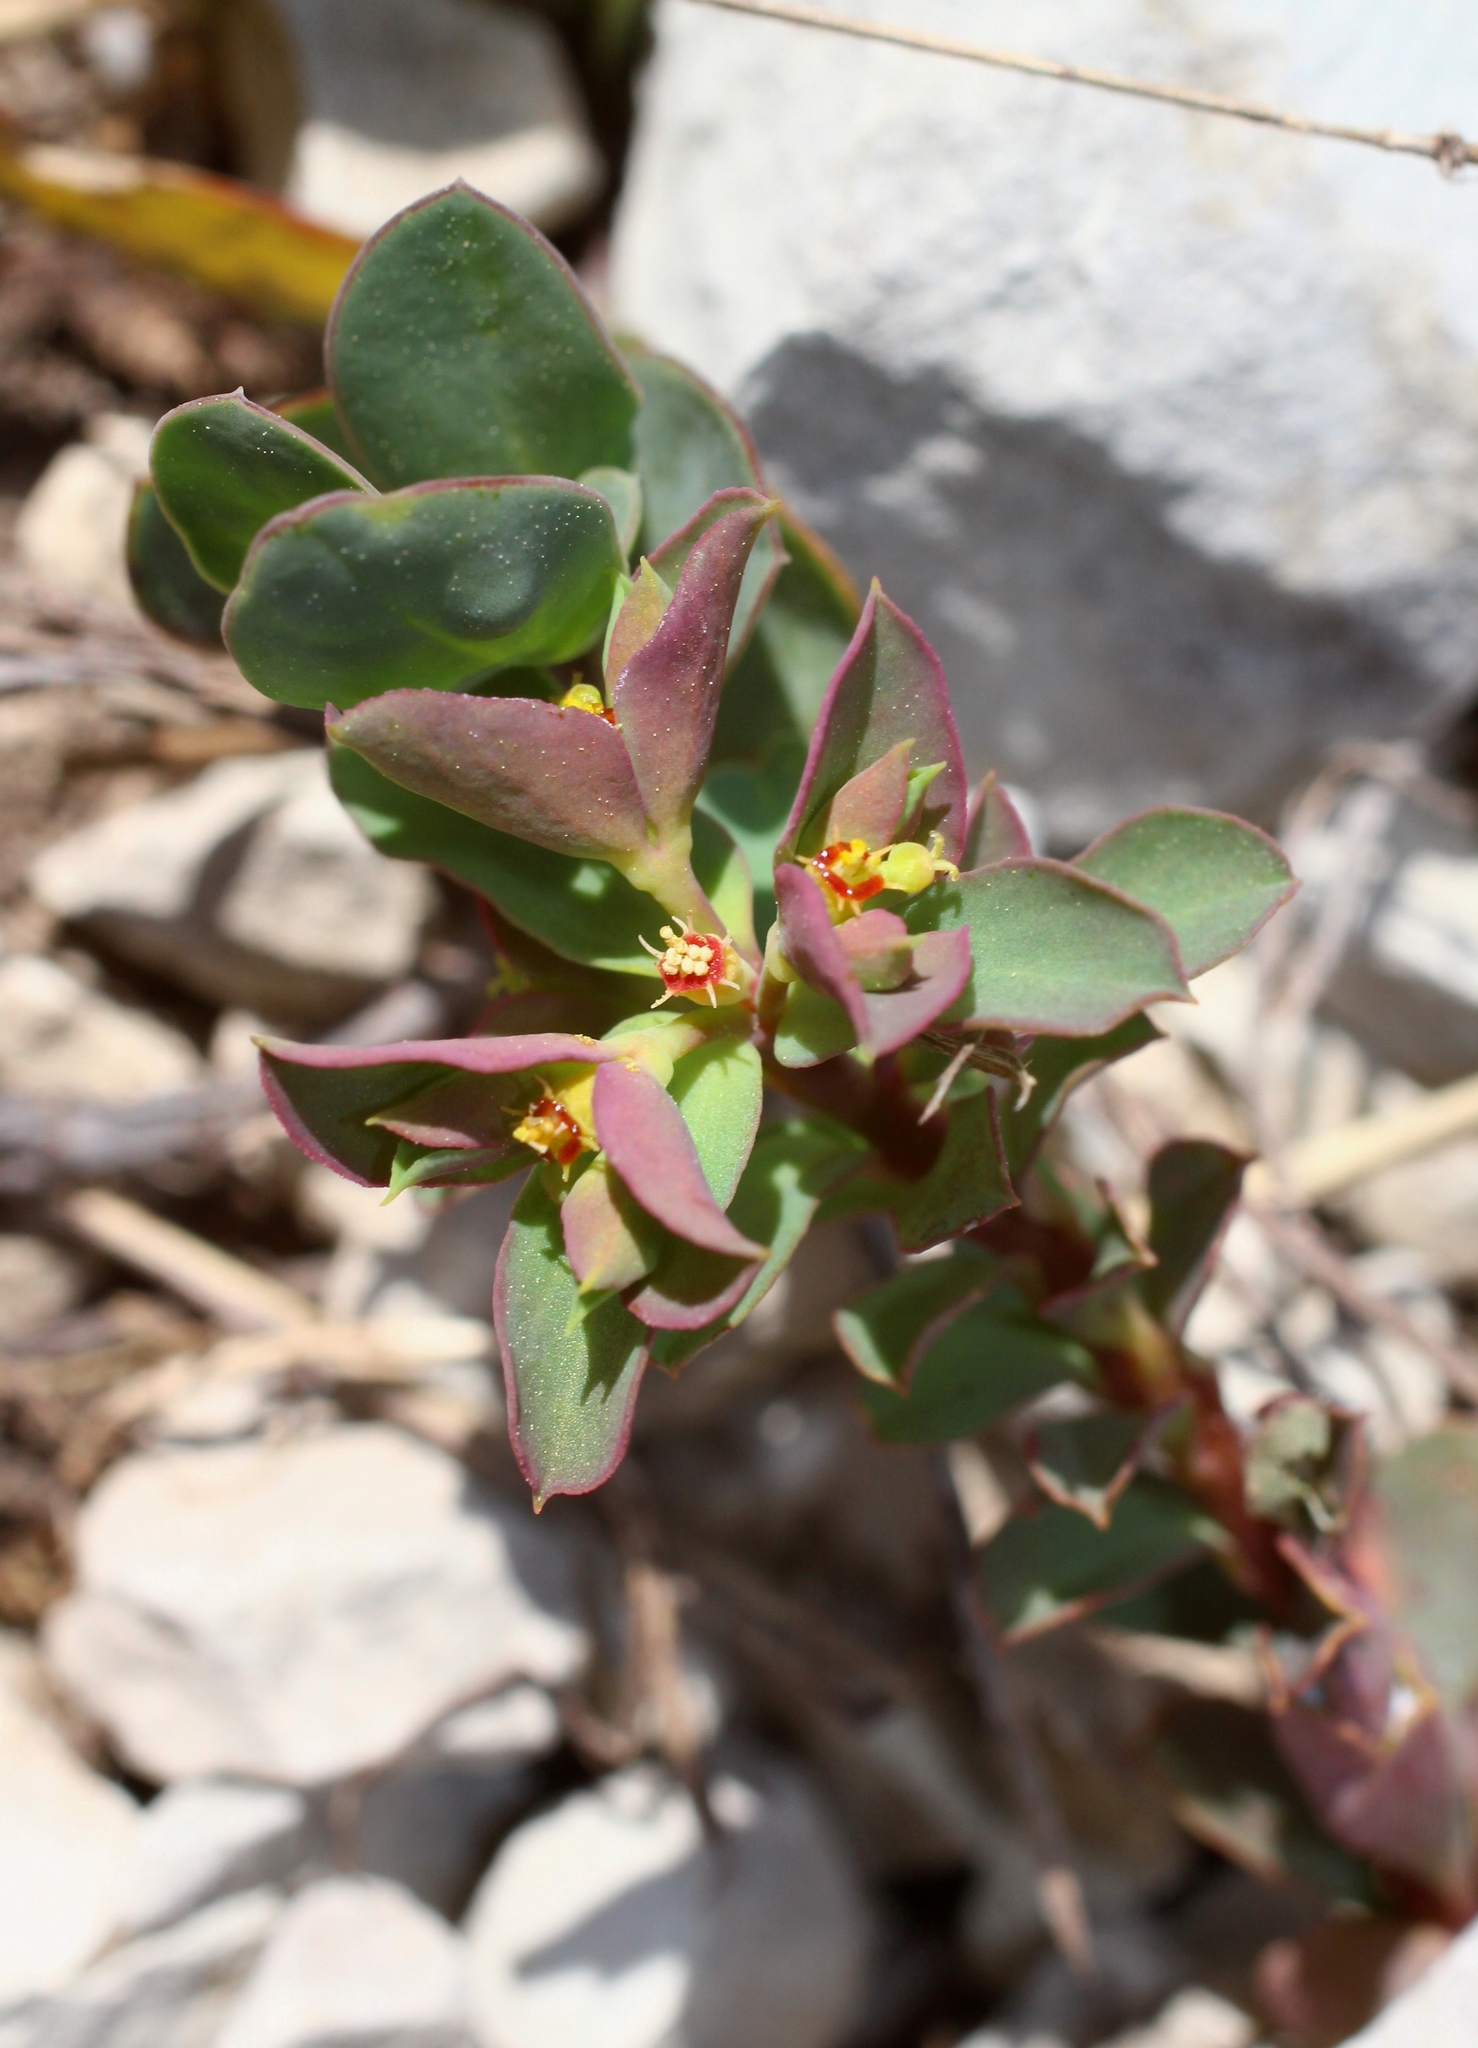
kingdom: Plantae
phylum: Tracheophyta
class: Magnoliopsida
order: Malpighiales
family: Euphorbiaceae
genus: Euphorbia
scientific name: Euphorbia aulacosperma
